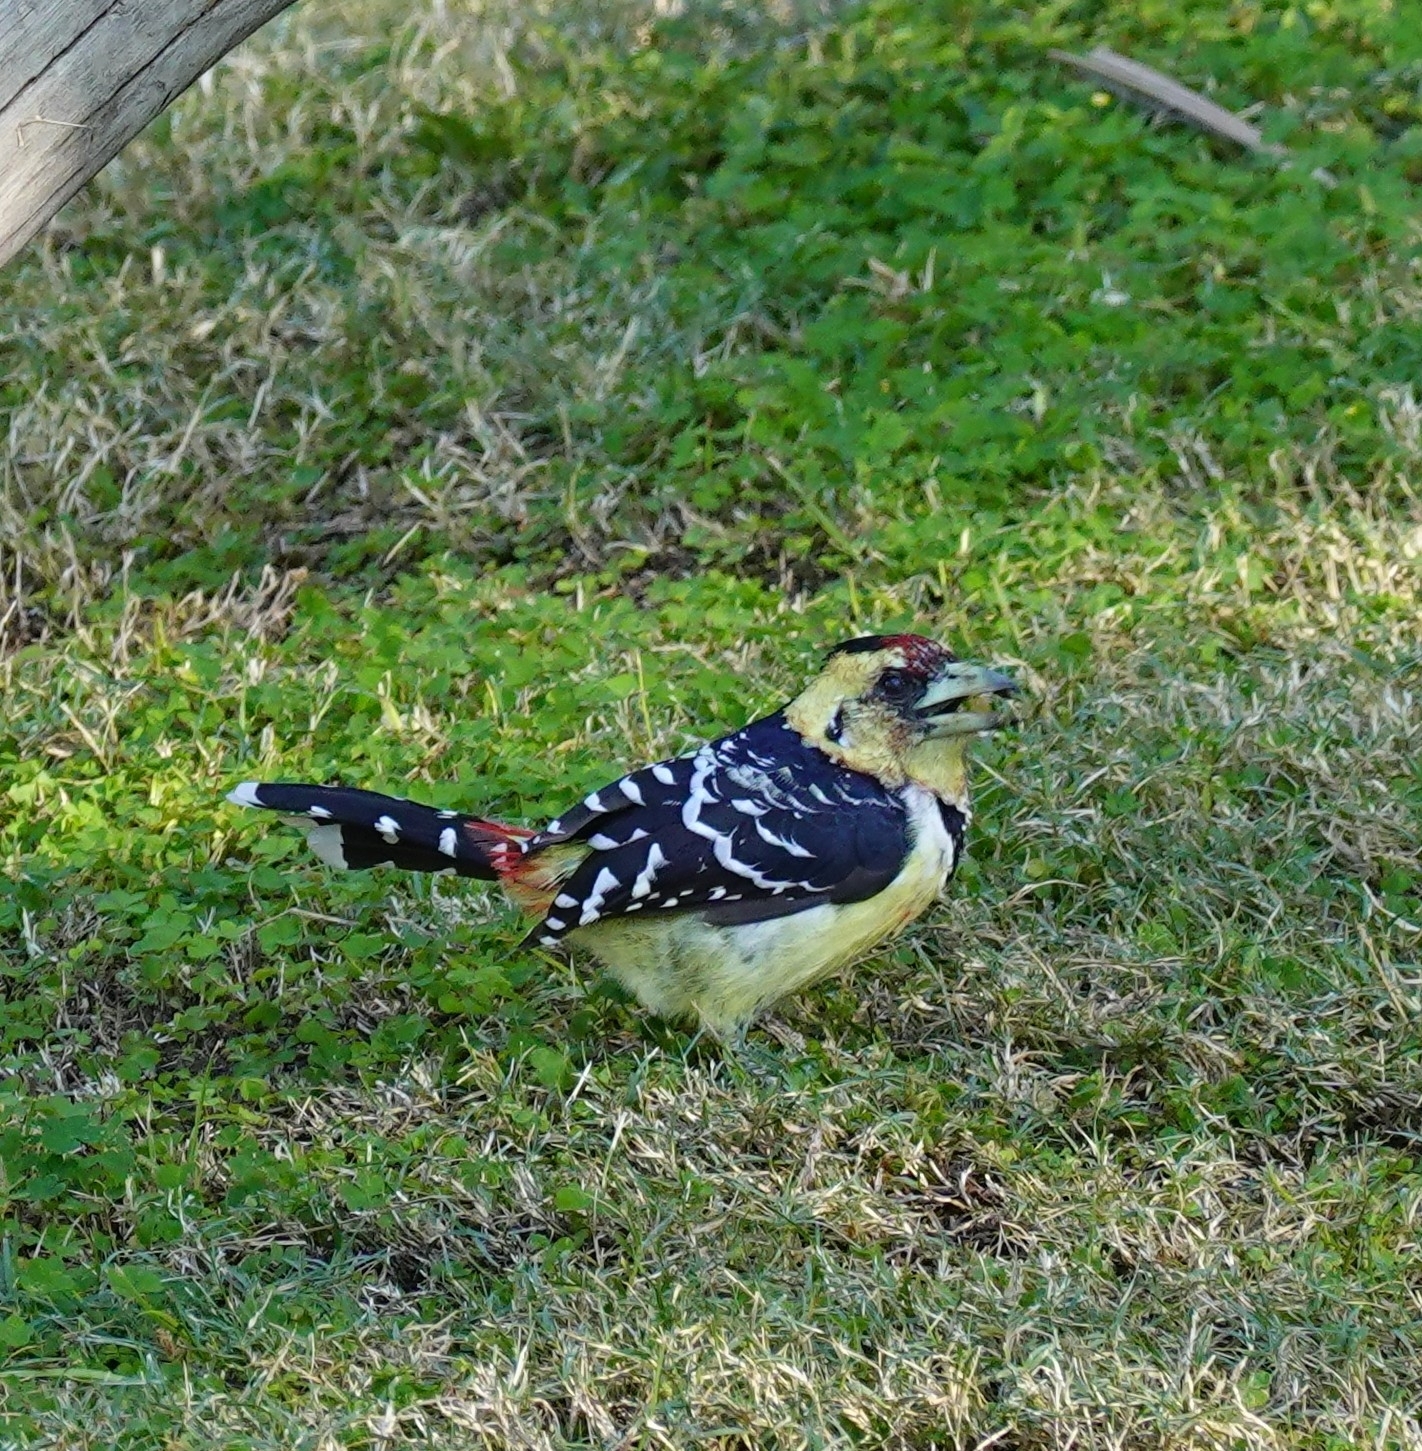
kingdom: Animalia
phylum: Chordata
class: Aves
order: Piciformes
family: Lybiidae
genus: Trachyphonus
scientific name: Trachyphonus vaillantii
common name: Crested barbet
